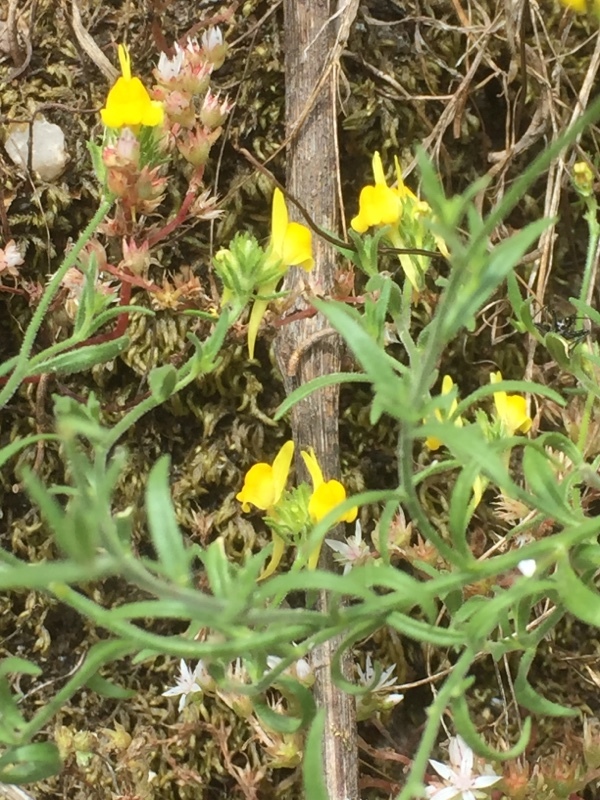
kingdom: Plantae
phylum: Tracheophyta
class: Magnoliopsida
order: Lamiales
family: Plantaginaceae
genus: Linaria
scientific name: Linaria saxatilis
